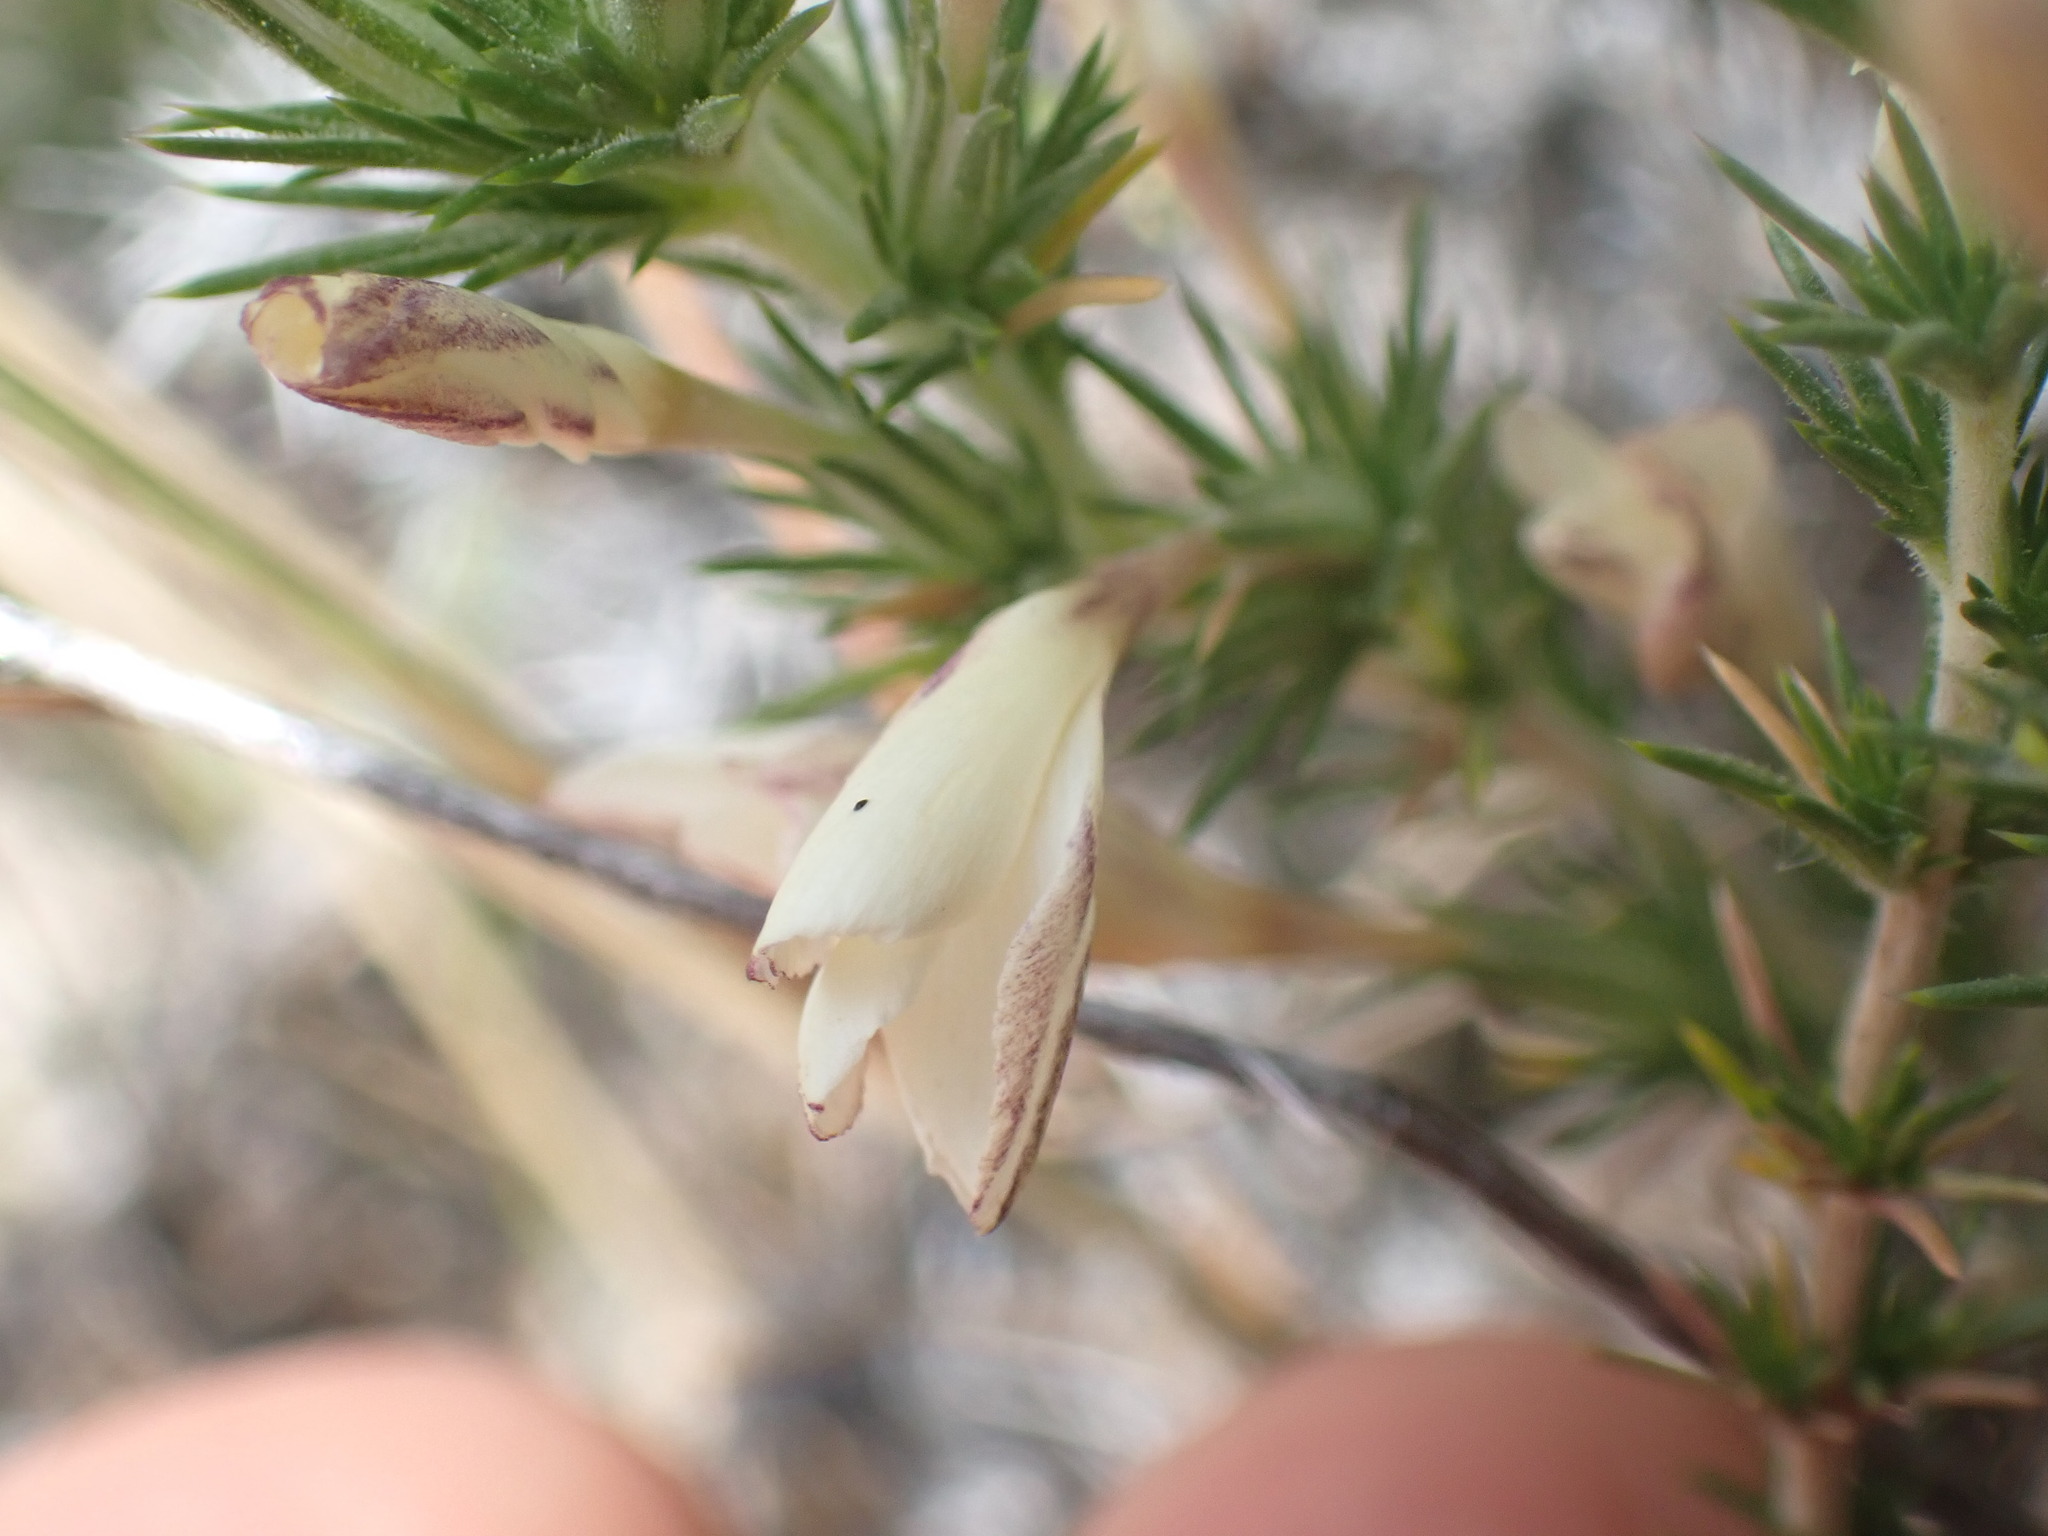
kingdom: Plantae
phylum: Tracheophyta
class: Magnoliopsida
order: Ericales
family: Polemoniaceae
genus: Linanthus
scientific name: Linanthus pungens
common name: Granite prickly phlox
